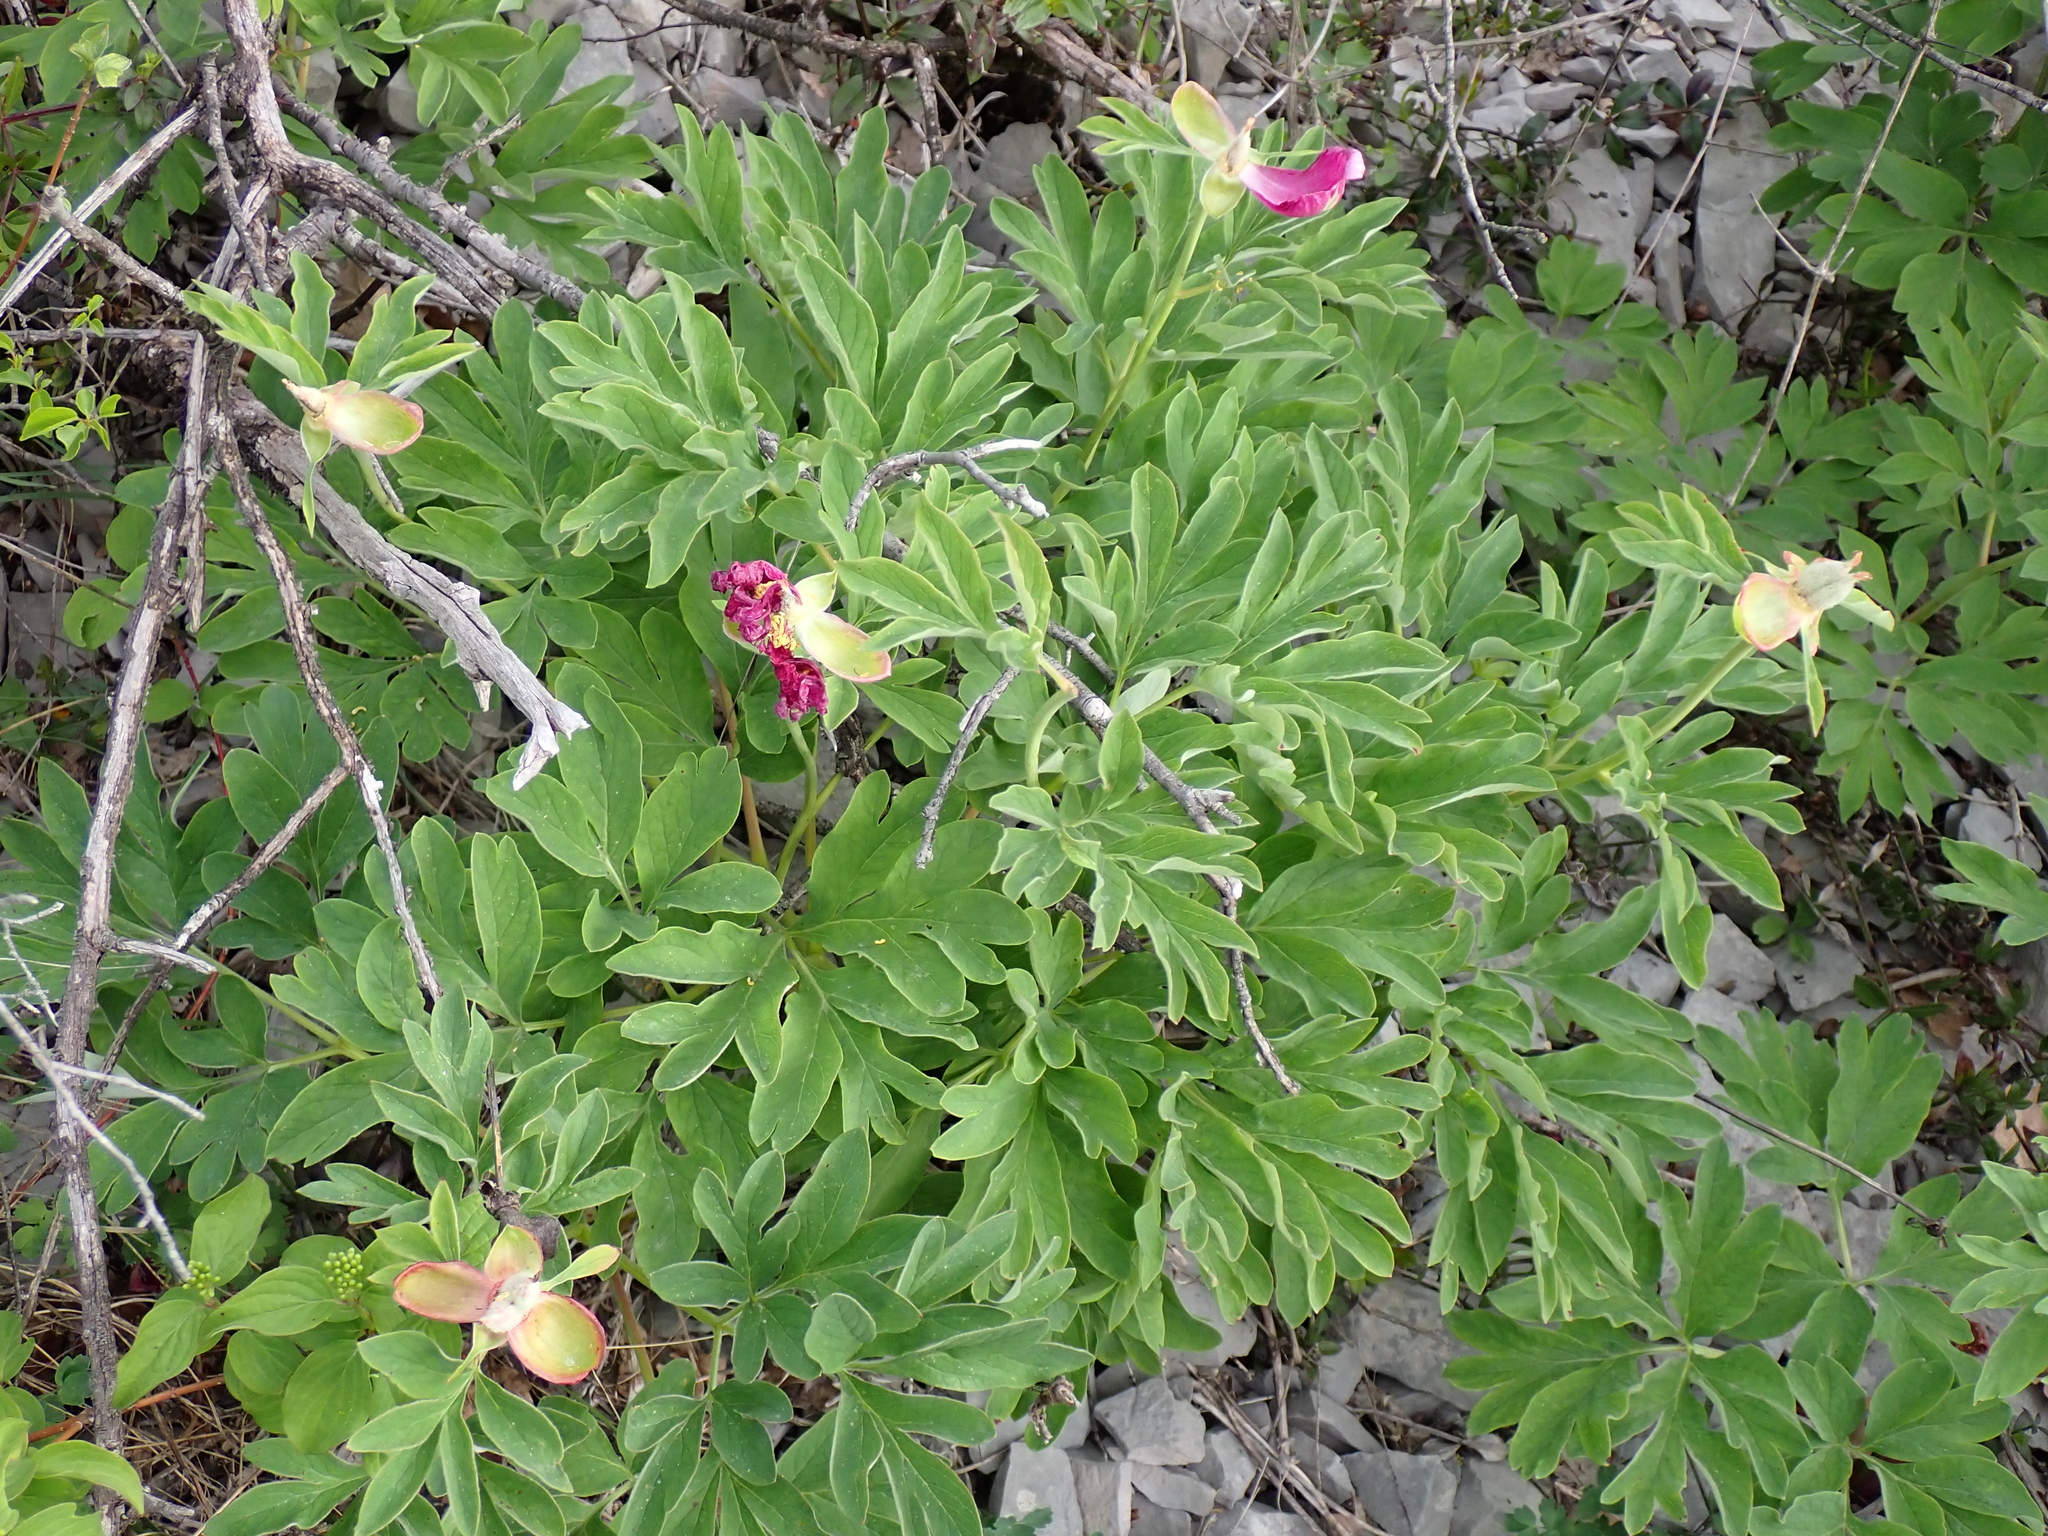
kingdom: Plantae
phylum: Tracheophyta
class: Magnoliopsida
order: Saxifragales
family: Paeoniaceae
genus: Paeonia
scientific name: Paeonia officinalis
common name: Common peony
